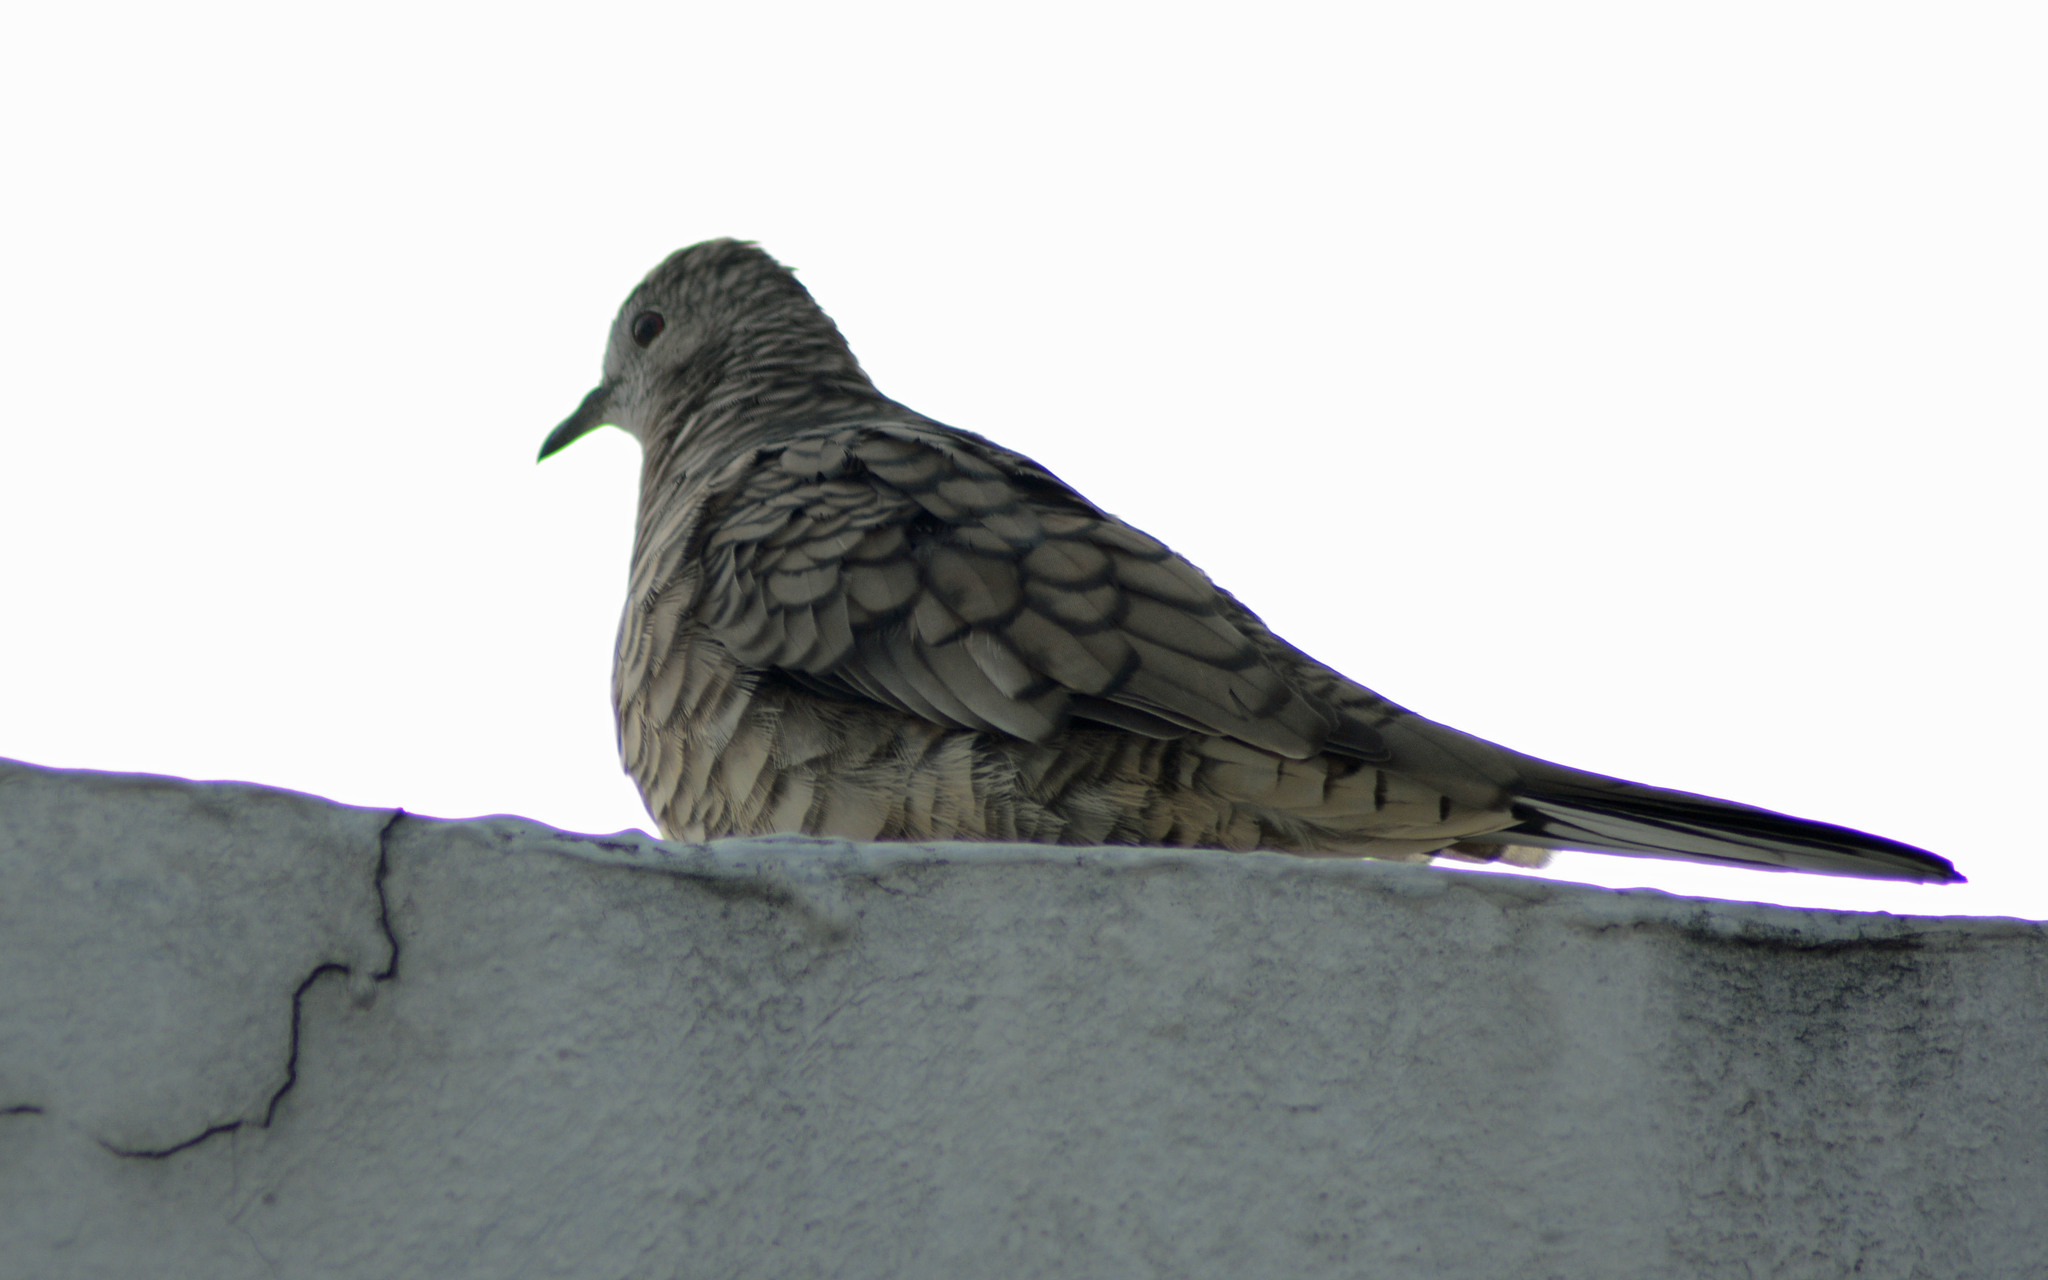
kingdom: Animalia
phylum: Chordata
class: Aves
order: Columbiformes
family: Columbidae
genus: Columbina
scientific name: Columbina inca
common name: Inca dove
